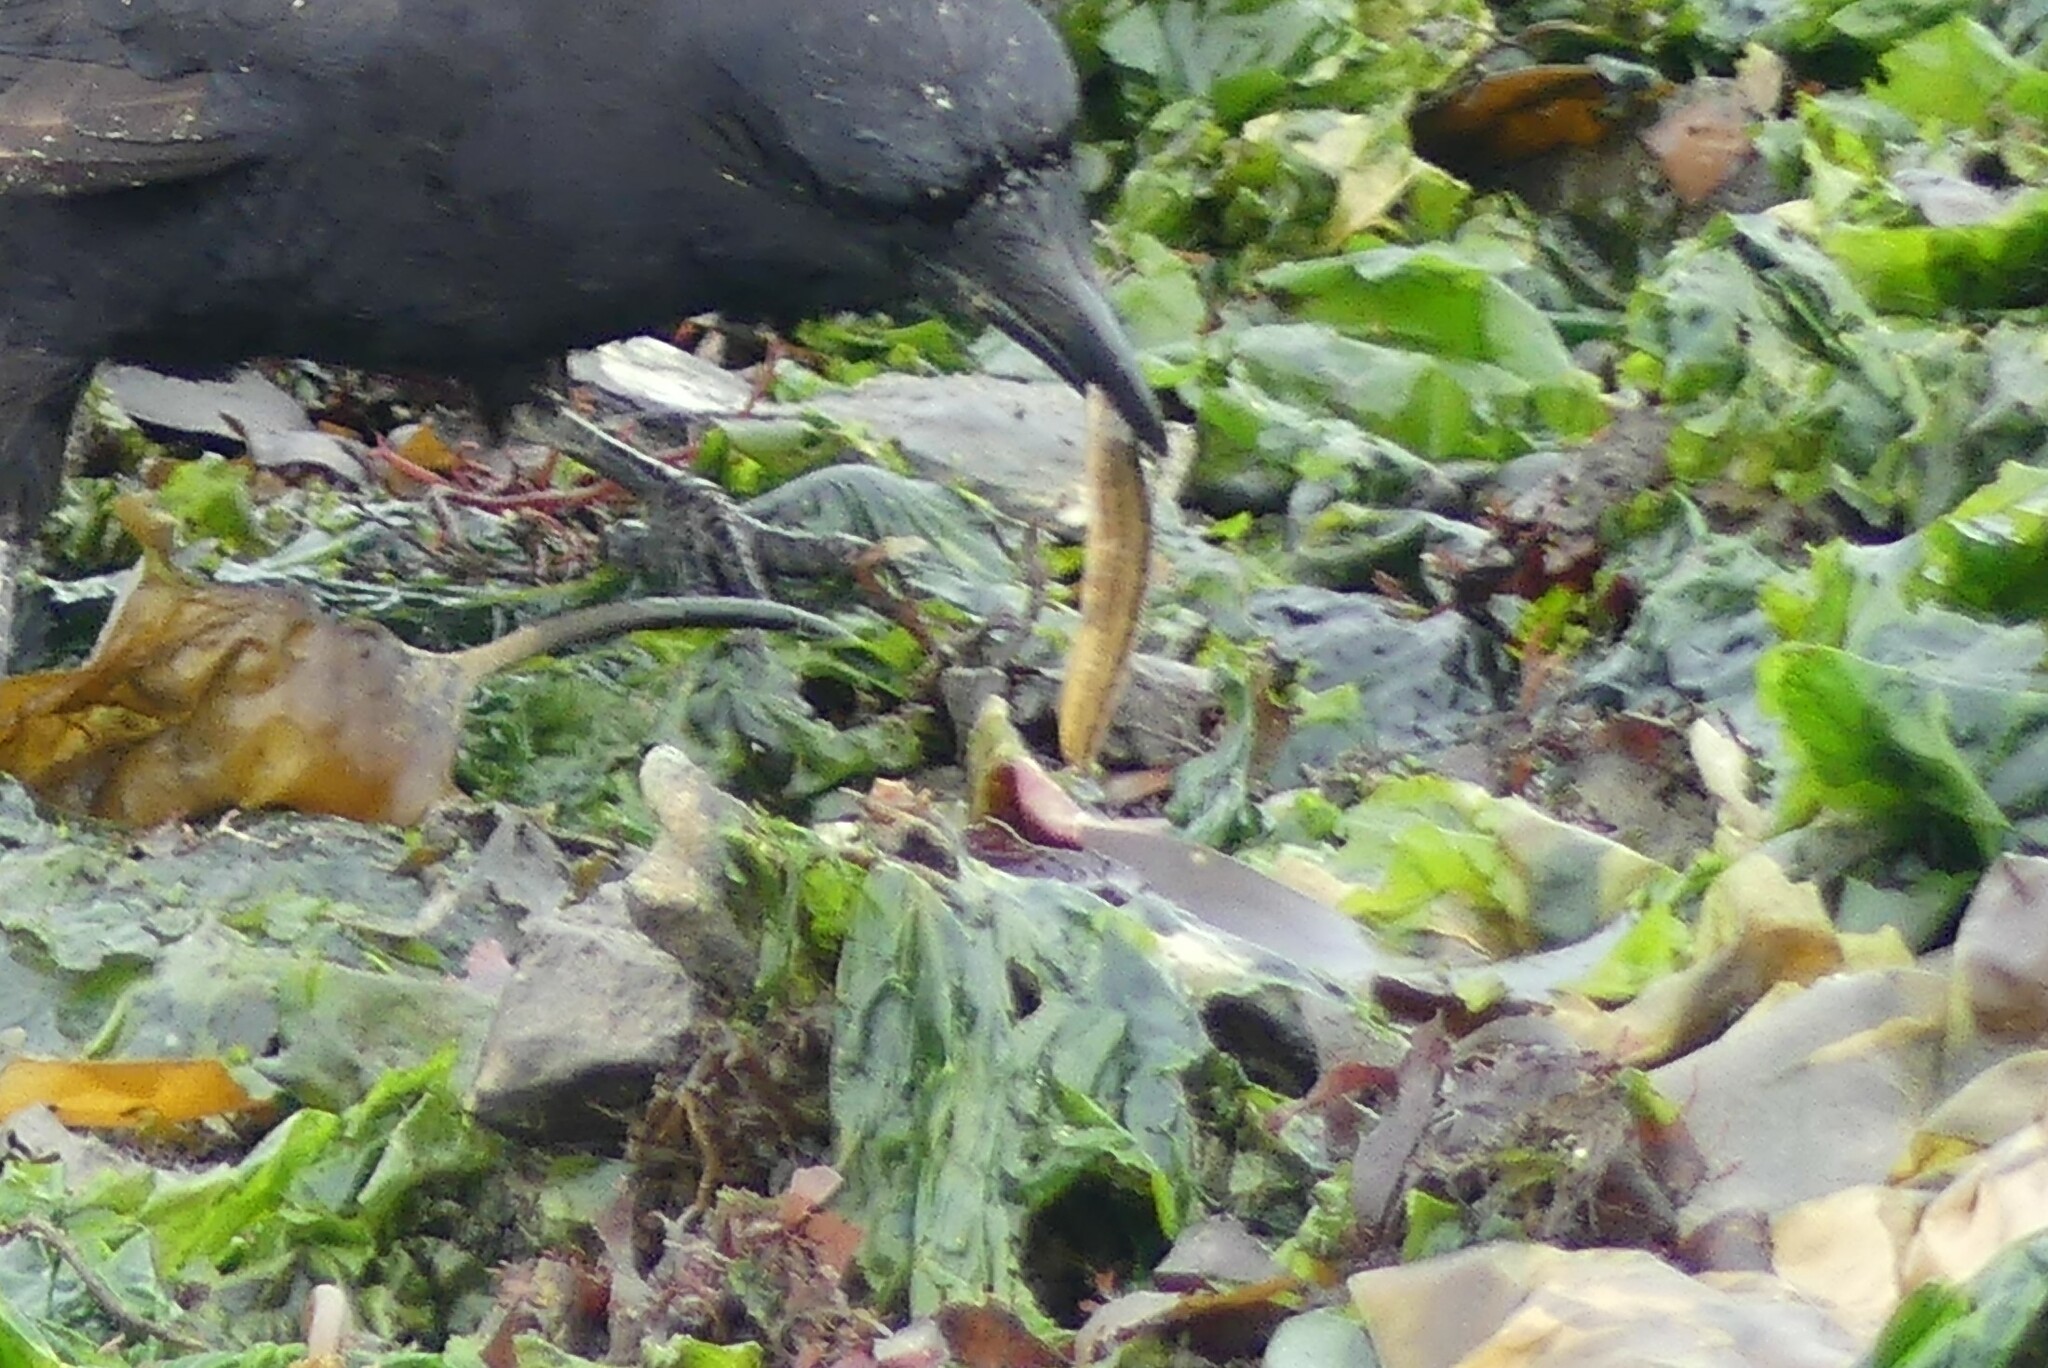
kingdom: Animalia
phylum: Chordata
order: Perciformes
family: Pholidae
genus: Pholis
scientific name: Pholis ornata
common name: Saddleback gunnel
